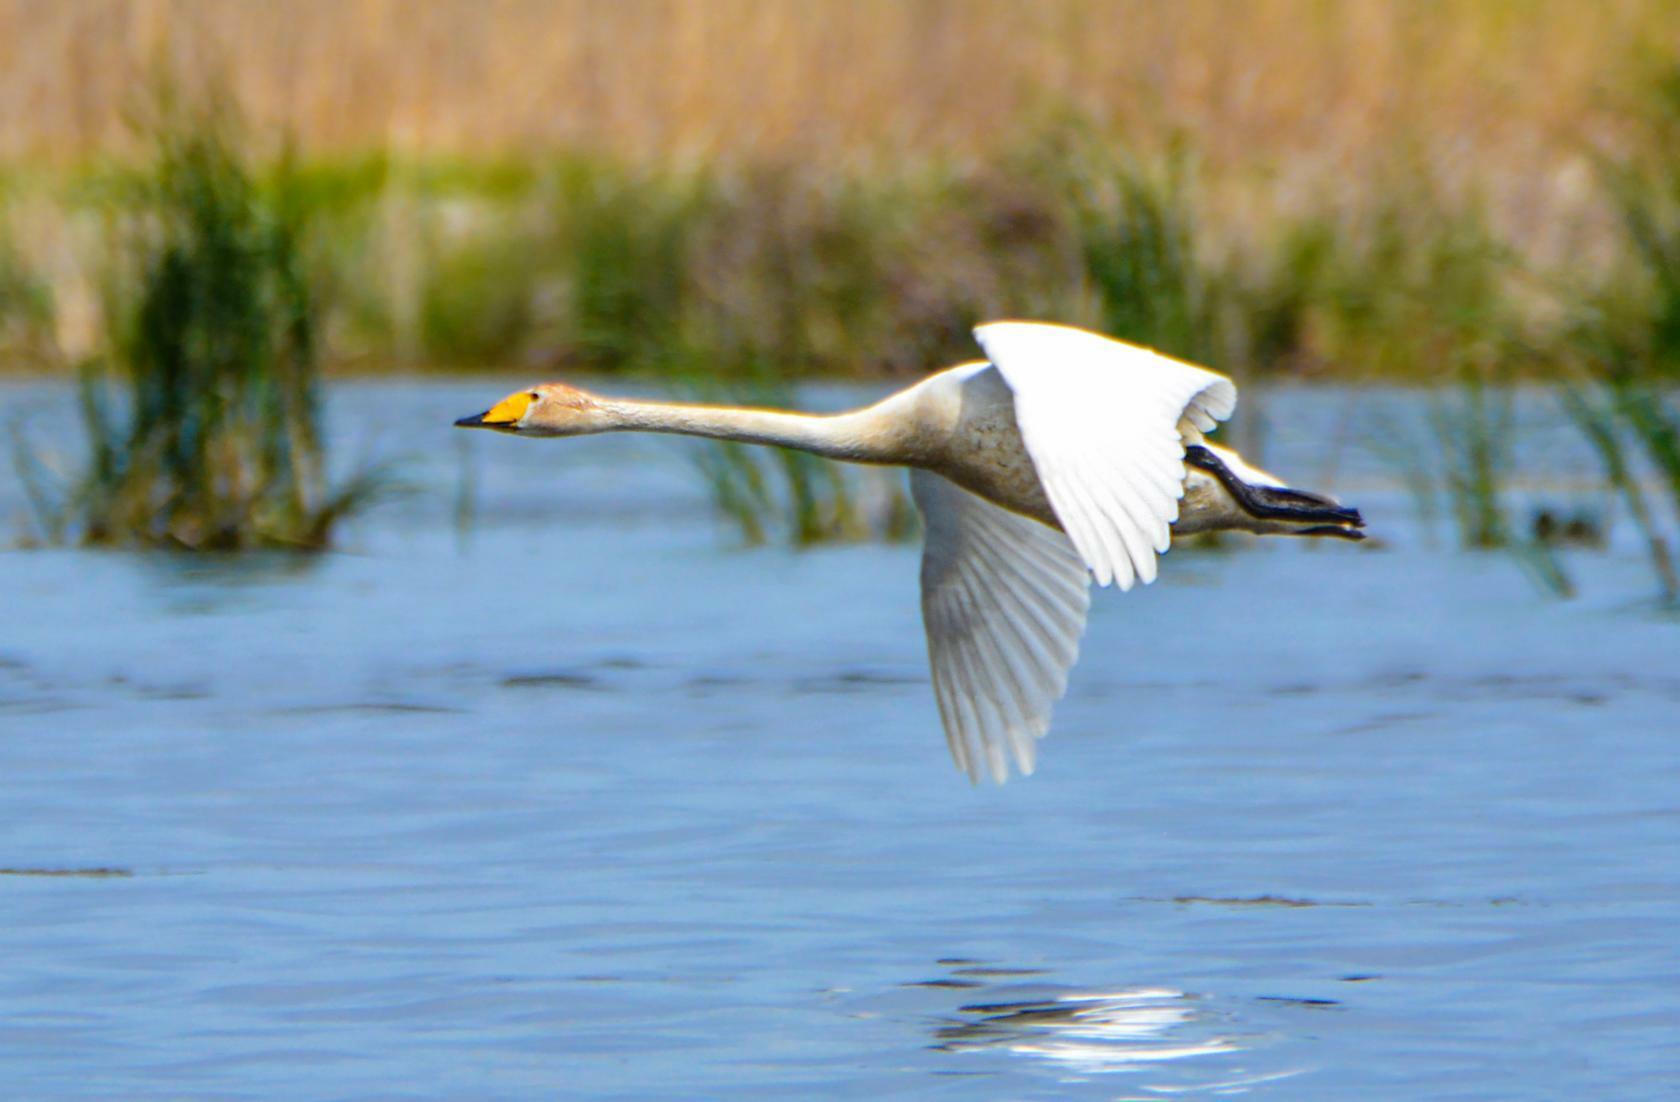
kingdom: Animalia
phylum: Chordata
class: Aves
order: Anseriformes
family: Anatidae
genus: Cygnus
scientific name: Cygnus cygnus
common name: Whooper swan
